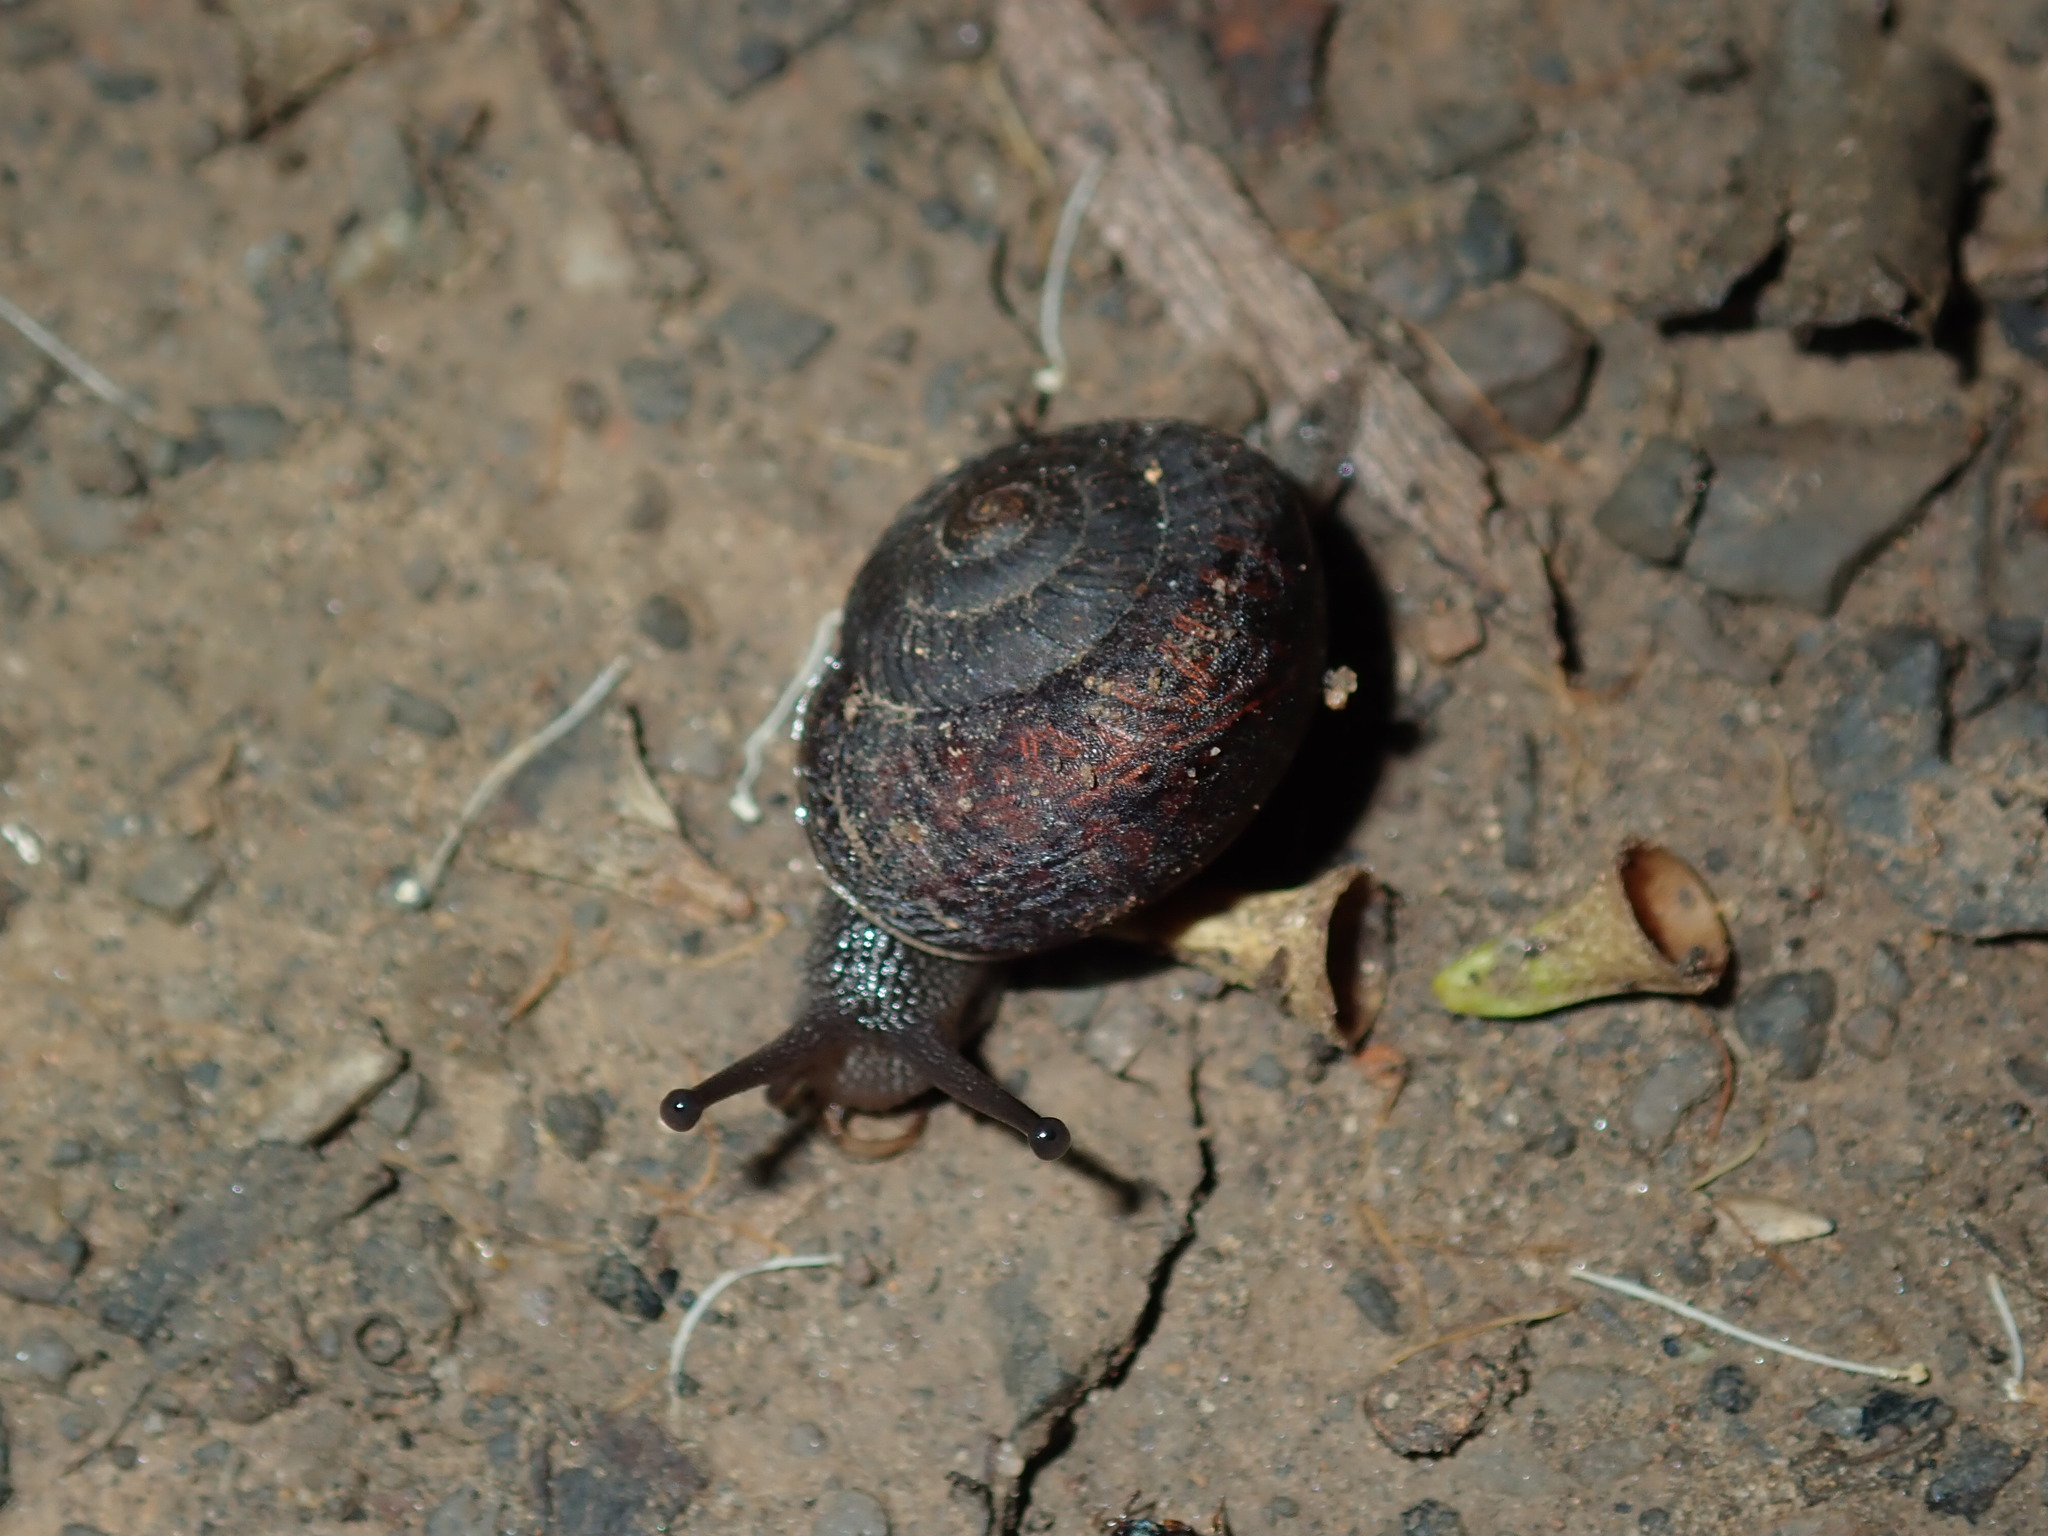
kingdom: Animalia
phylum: Mollusca
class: Gastropoda
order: Stylommatophora
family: Camaenidae
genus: Sauroconcha
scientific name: Sauroconcha sheai
